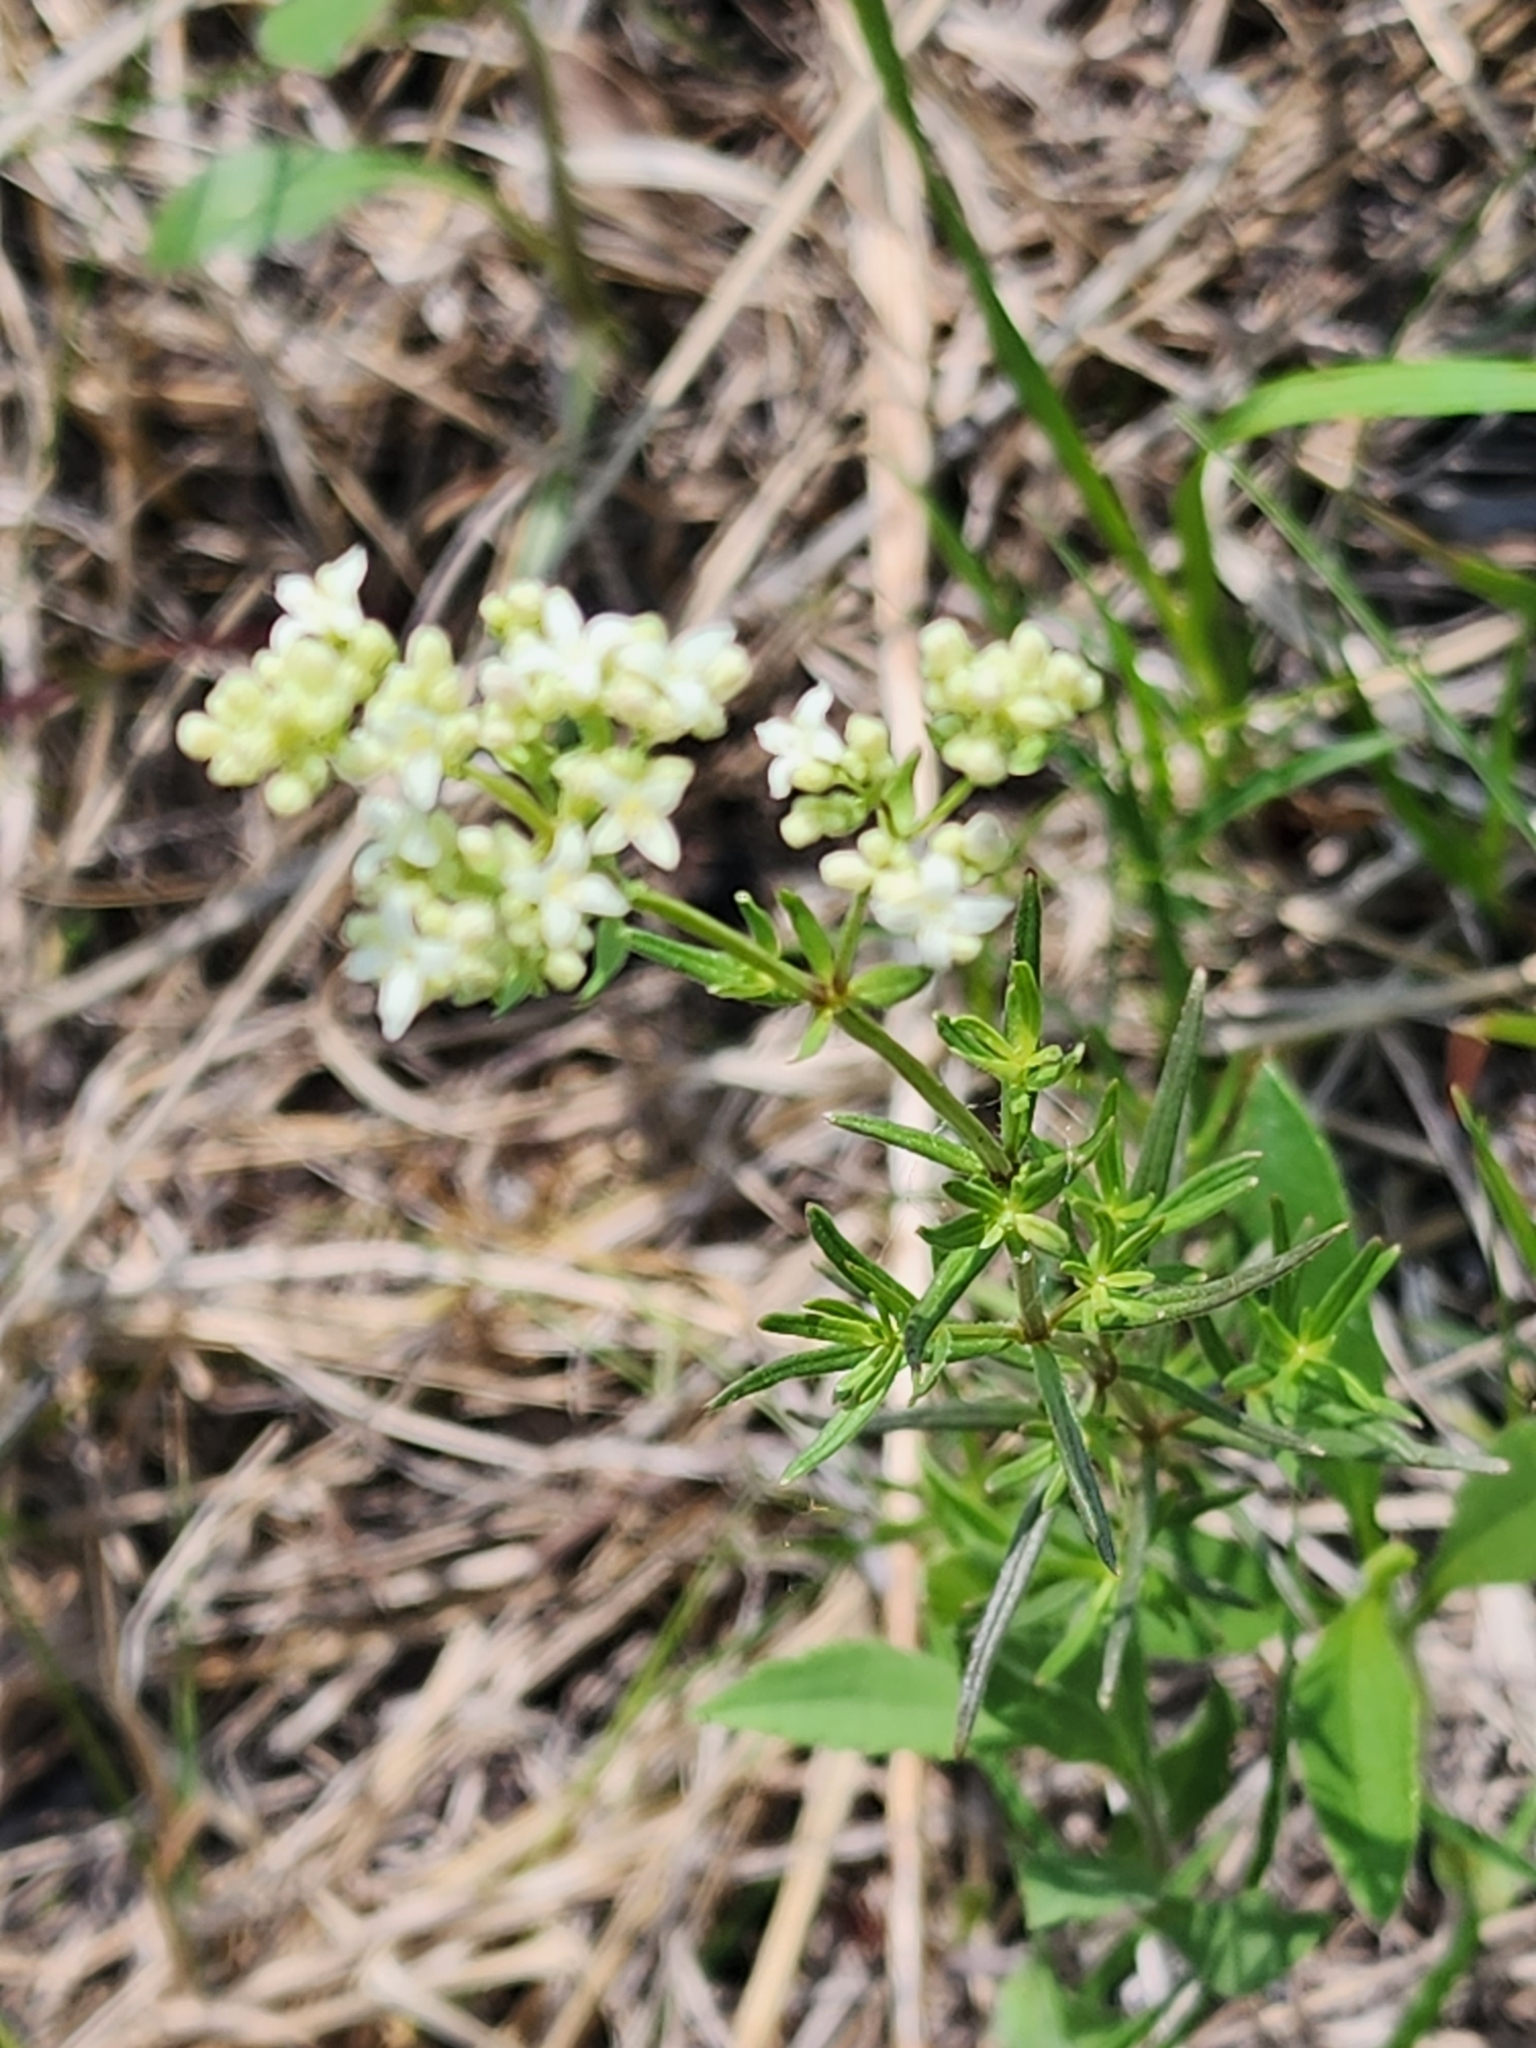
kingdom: Plantae
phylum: Tracheophyta
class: Magnoliopsida
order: Gentianales
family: Rubiaceae
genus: Galium
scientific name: Galium boreale
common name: Northern bedstraw
